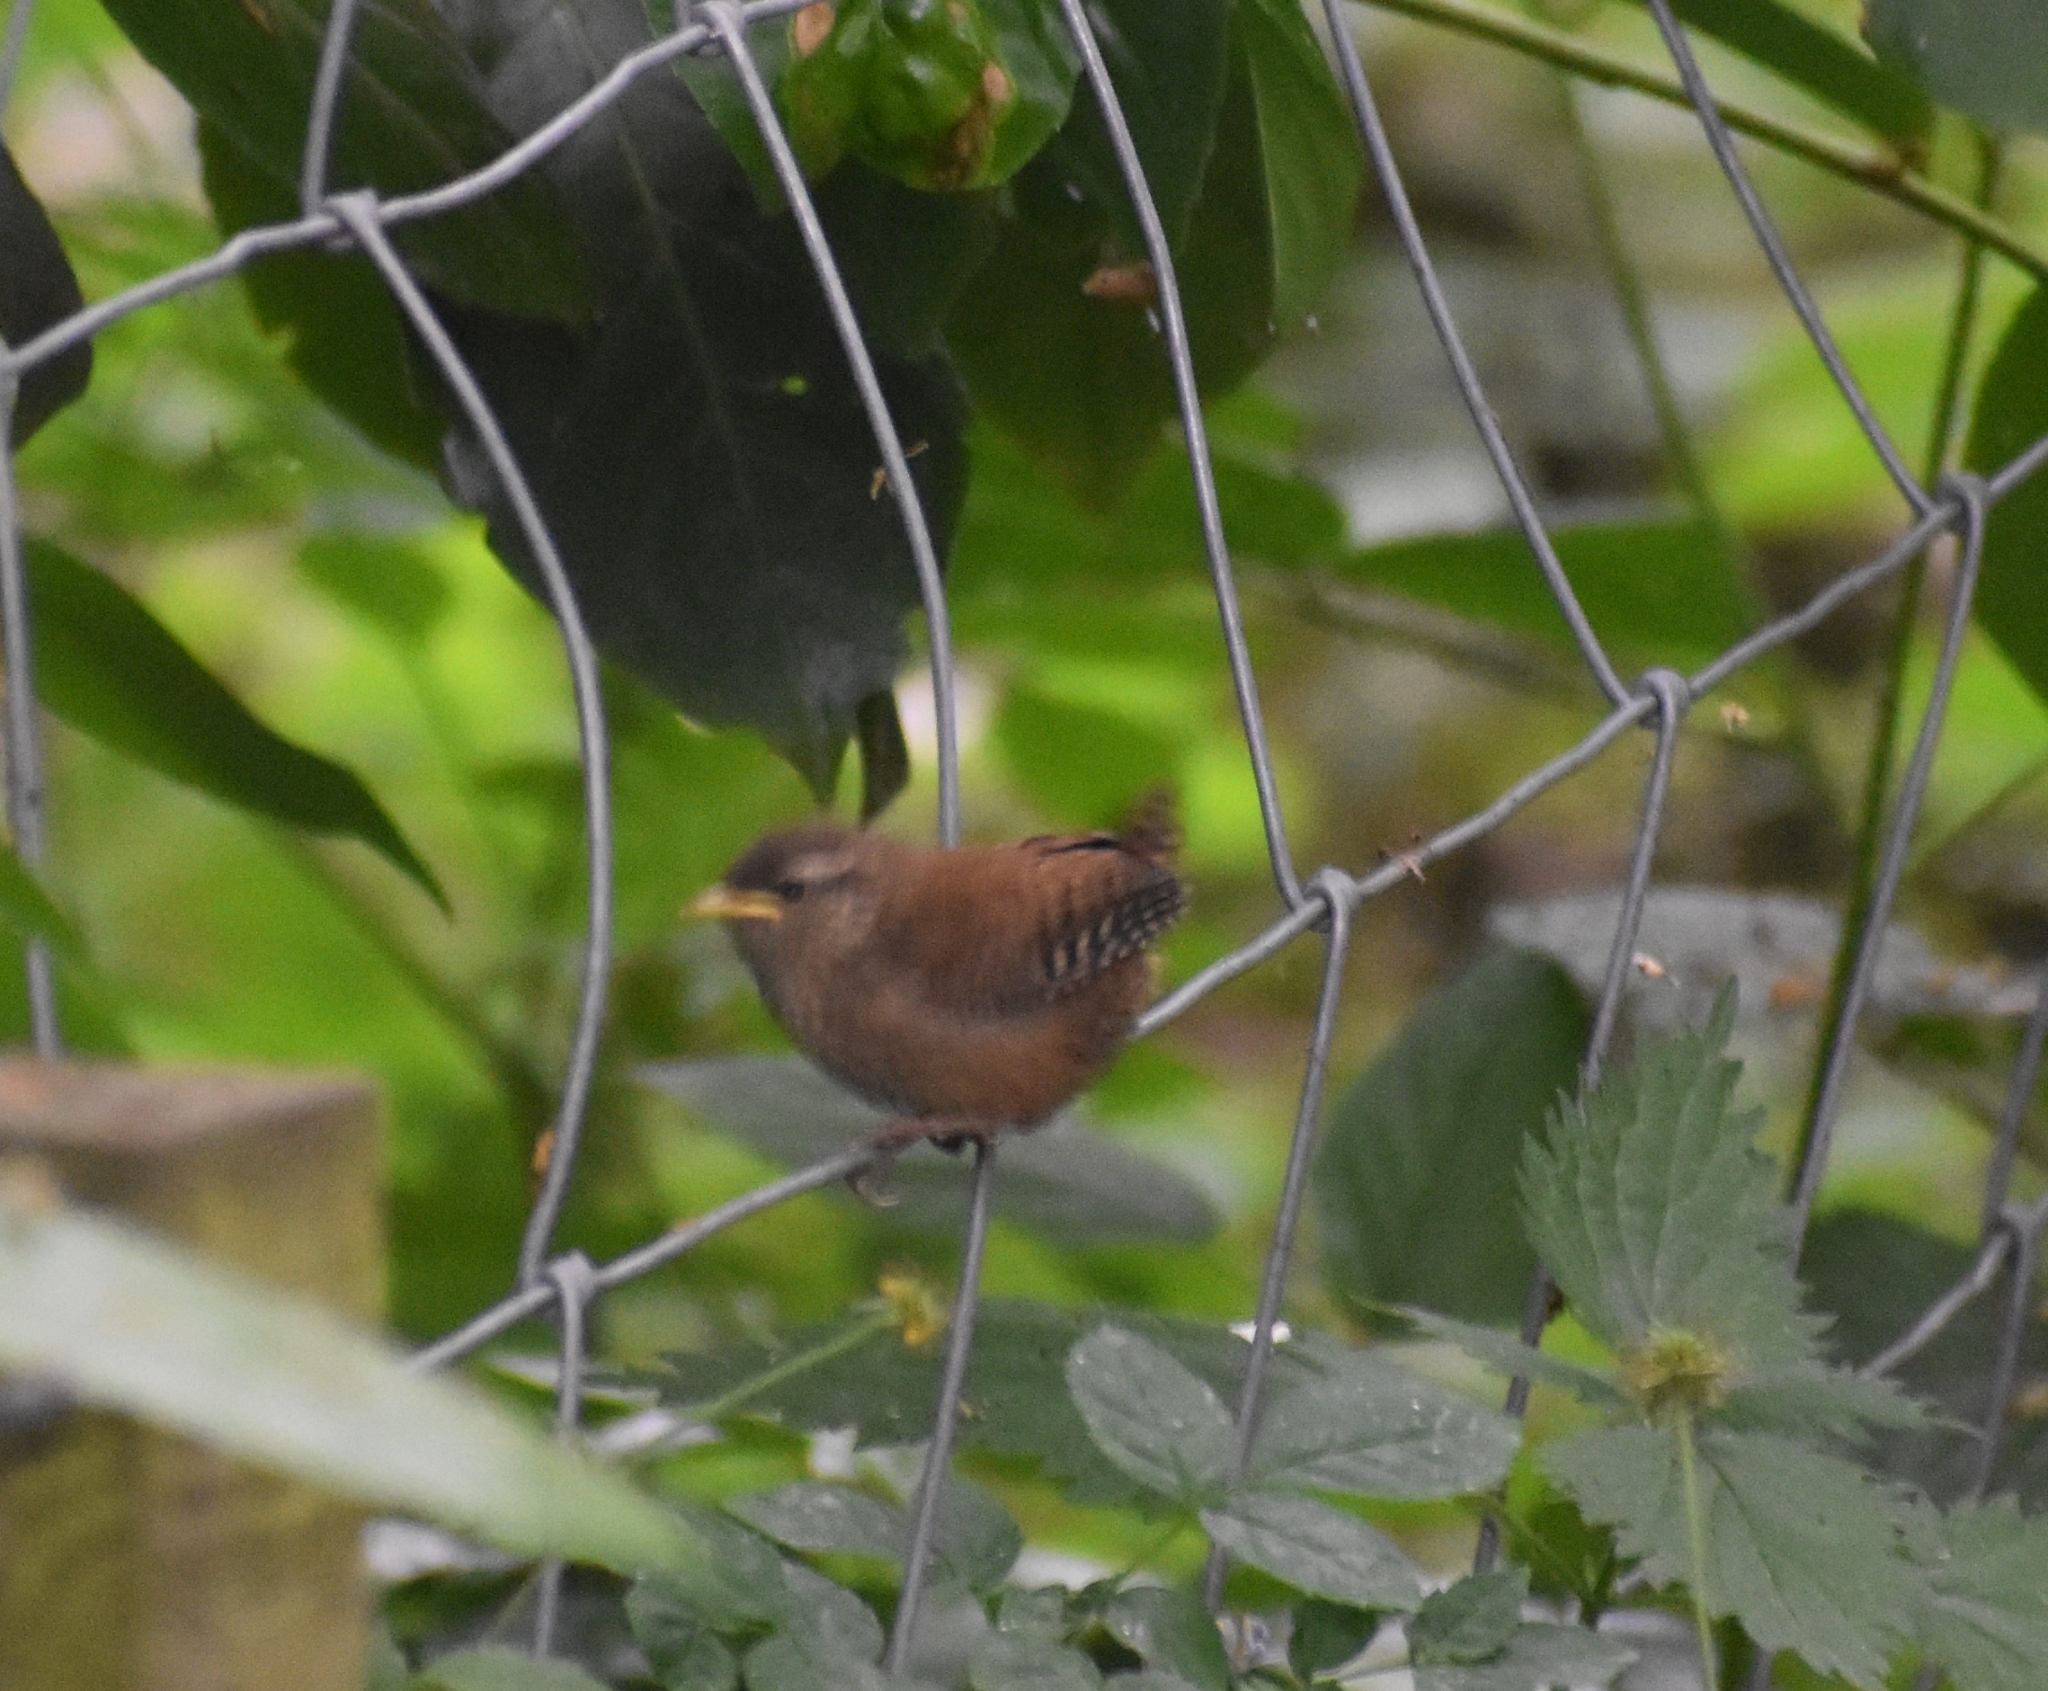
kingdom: Animalia
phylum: Chordata
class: Aves
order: Passeriformes
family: Troglodytidae
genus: Troglodytes
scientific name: Troglodytes troglodytes
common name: Eurasian wren
